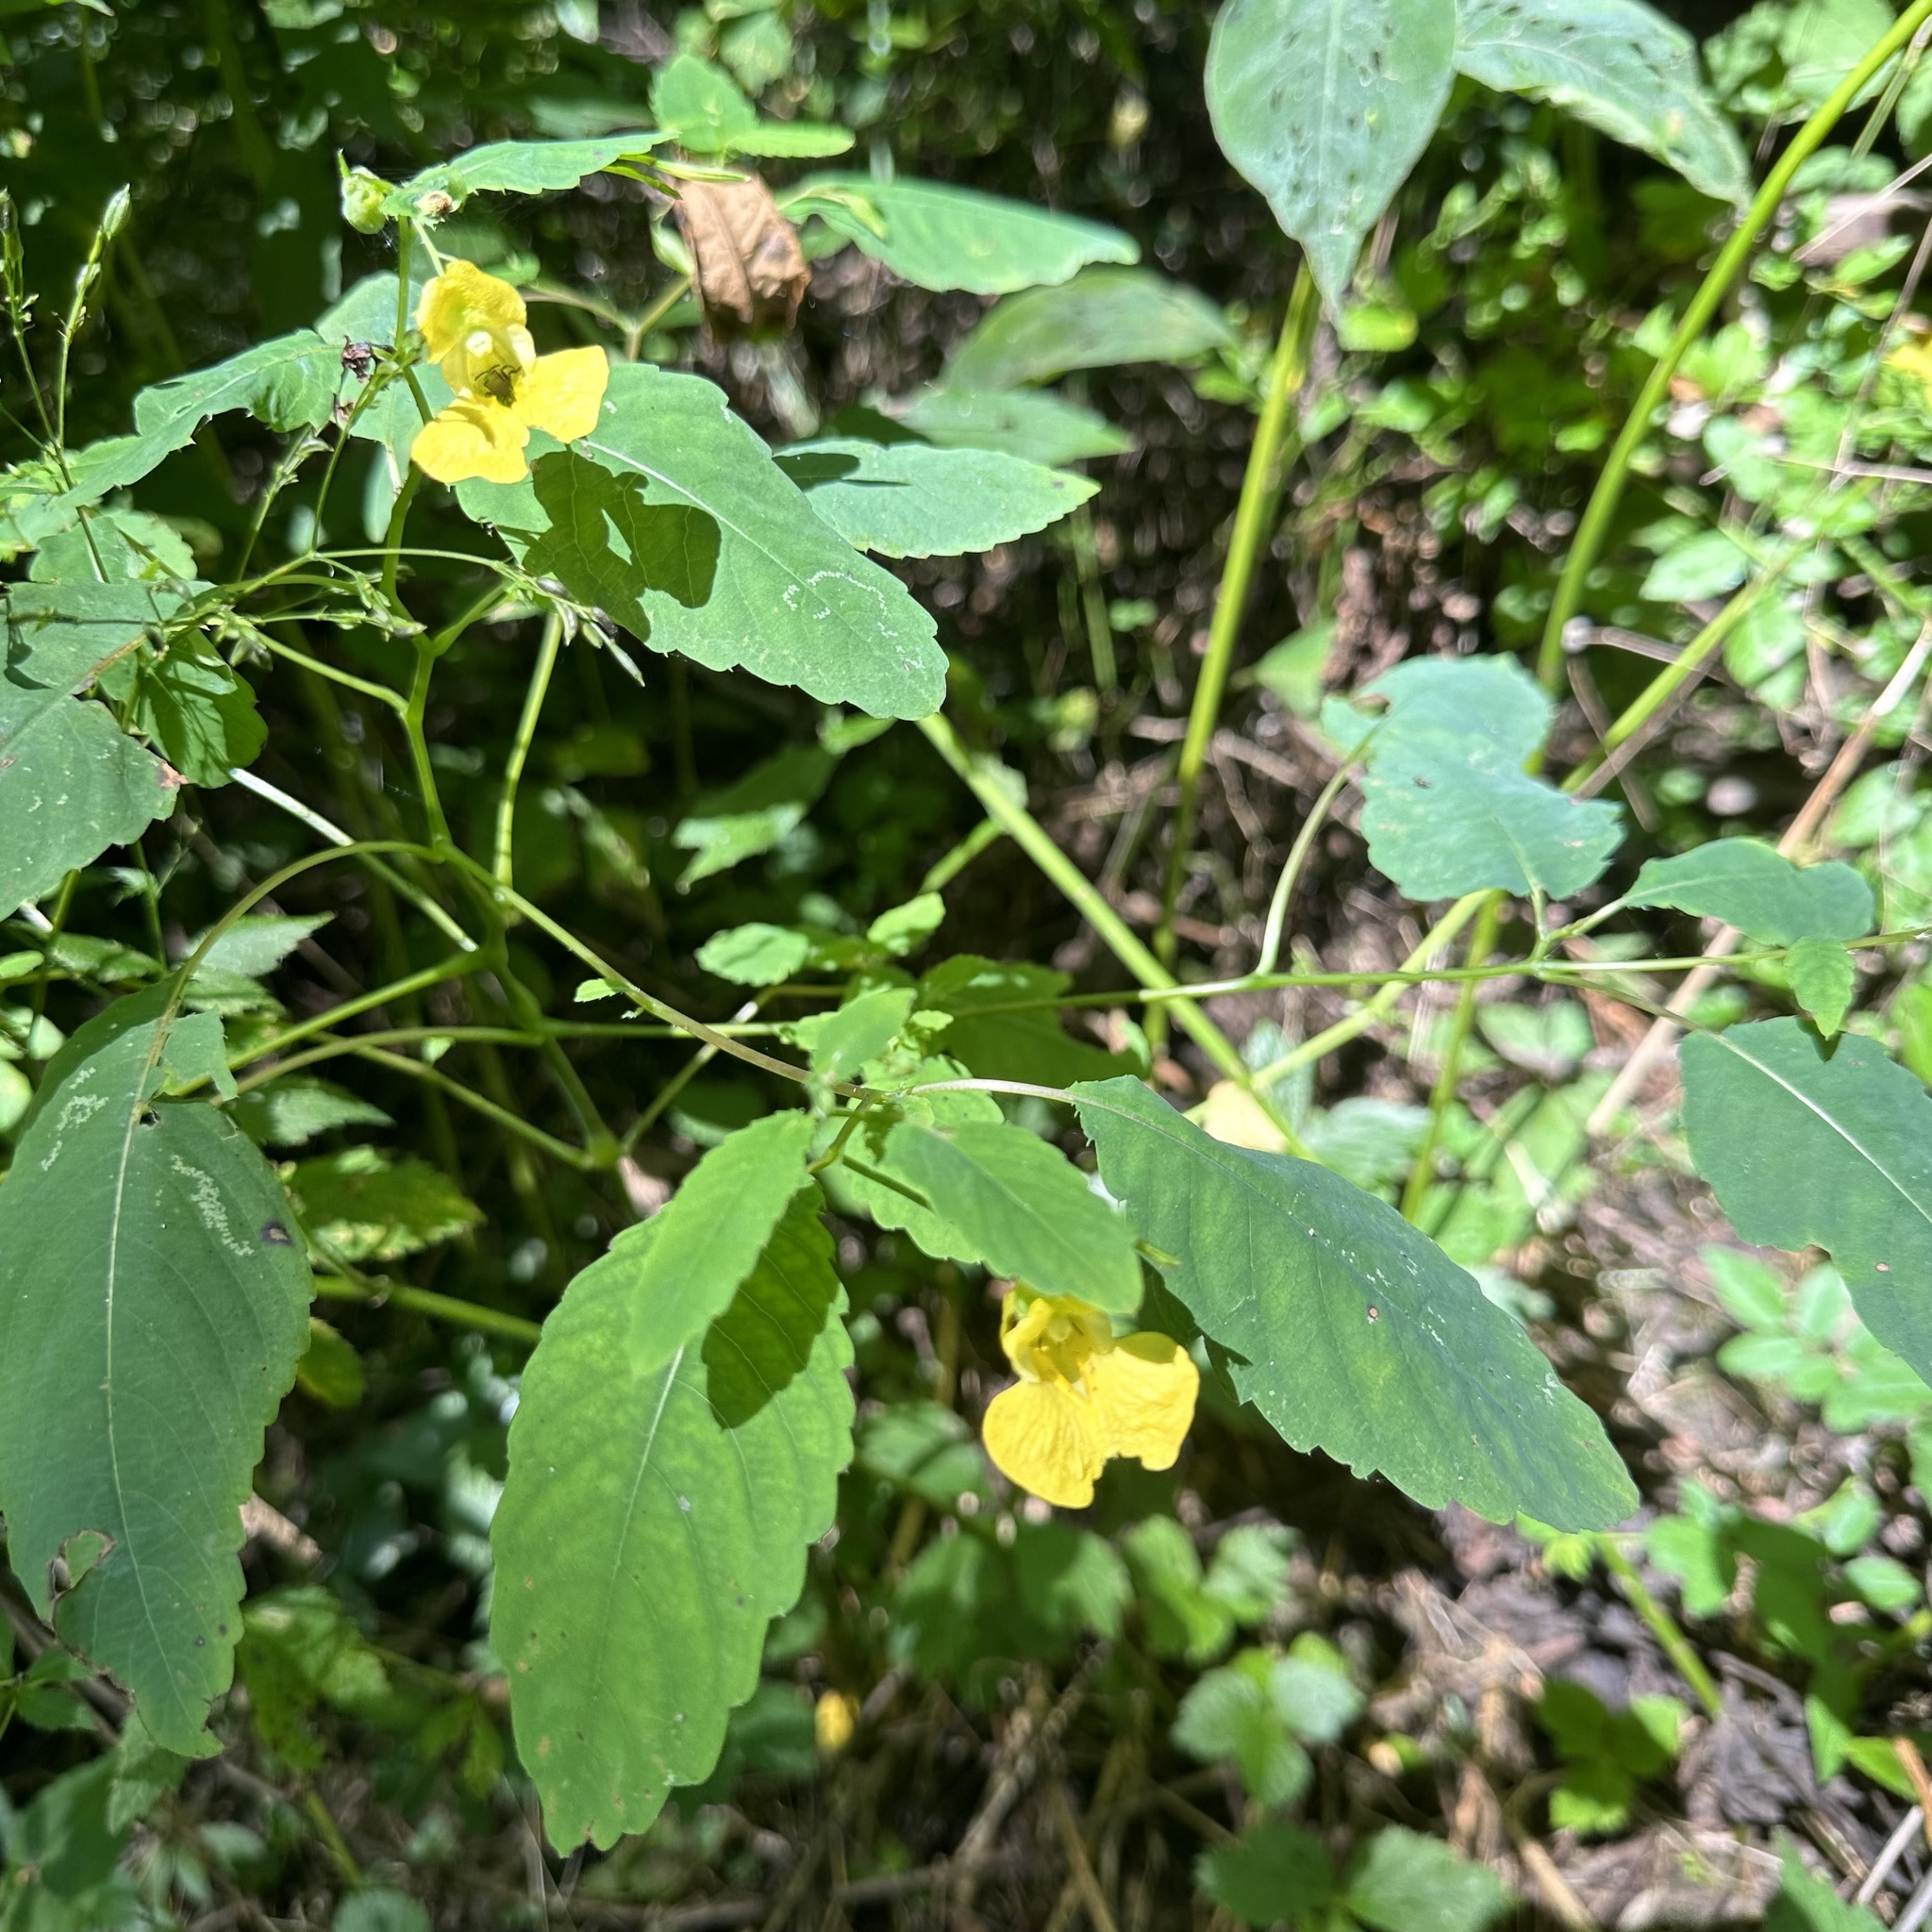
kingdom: Plantae
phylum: Tracheophyta
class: Magnoliopsida
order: Ericales
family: Balsaminaceae
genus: Impatiens
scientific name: Impatiens pallida
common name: Pale snapweed
